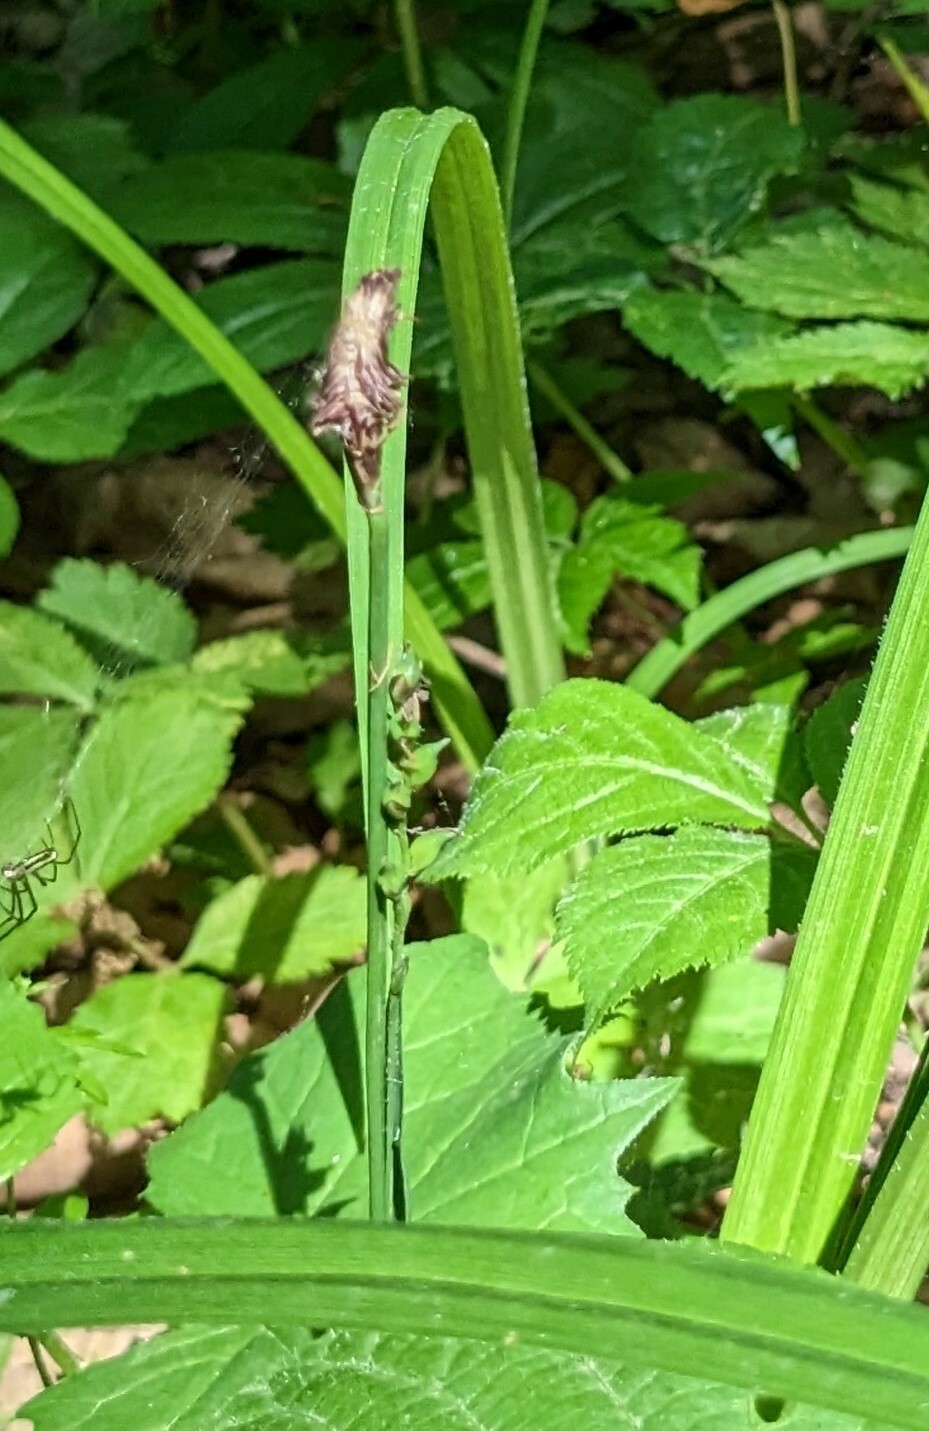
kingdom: Plantae
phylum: Tracheophyta
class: Liliopsida
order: Poales
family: Cyperaceae
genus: Carex
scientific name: Carex auriculata
